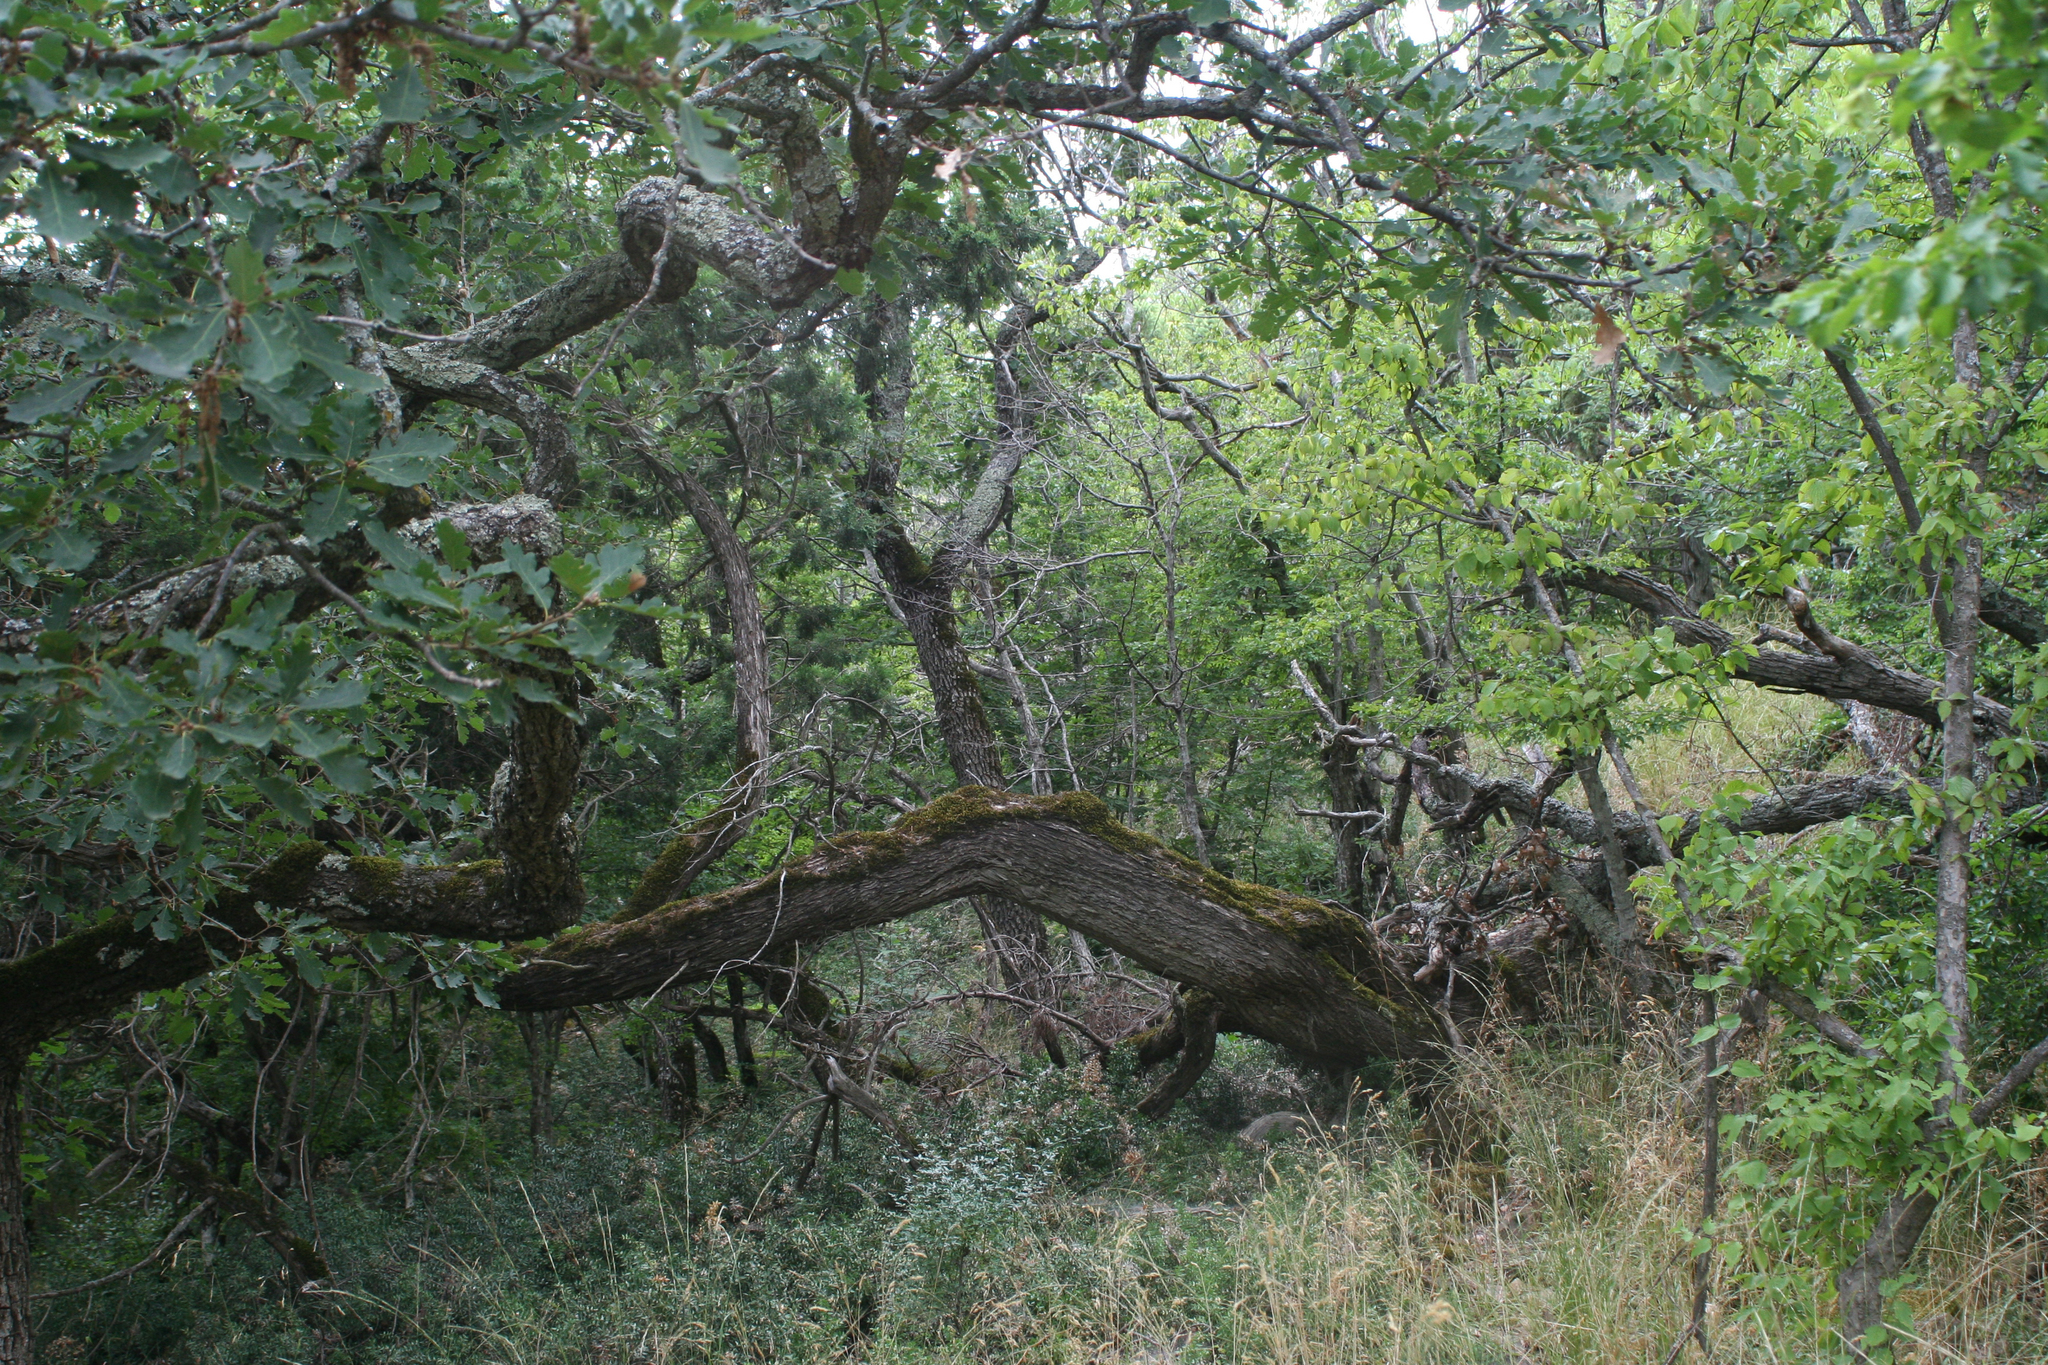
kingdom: Plantae
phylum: Tracheophyta
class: Magnoliopsida
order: Fagales
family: Fagaceae
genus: Quercus
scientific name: Quercus pubescens
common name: Downy oak
